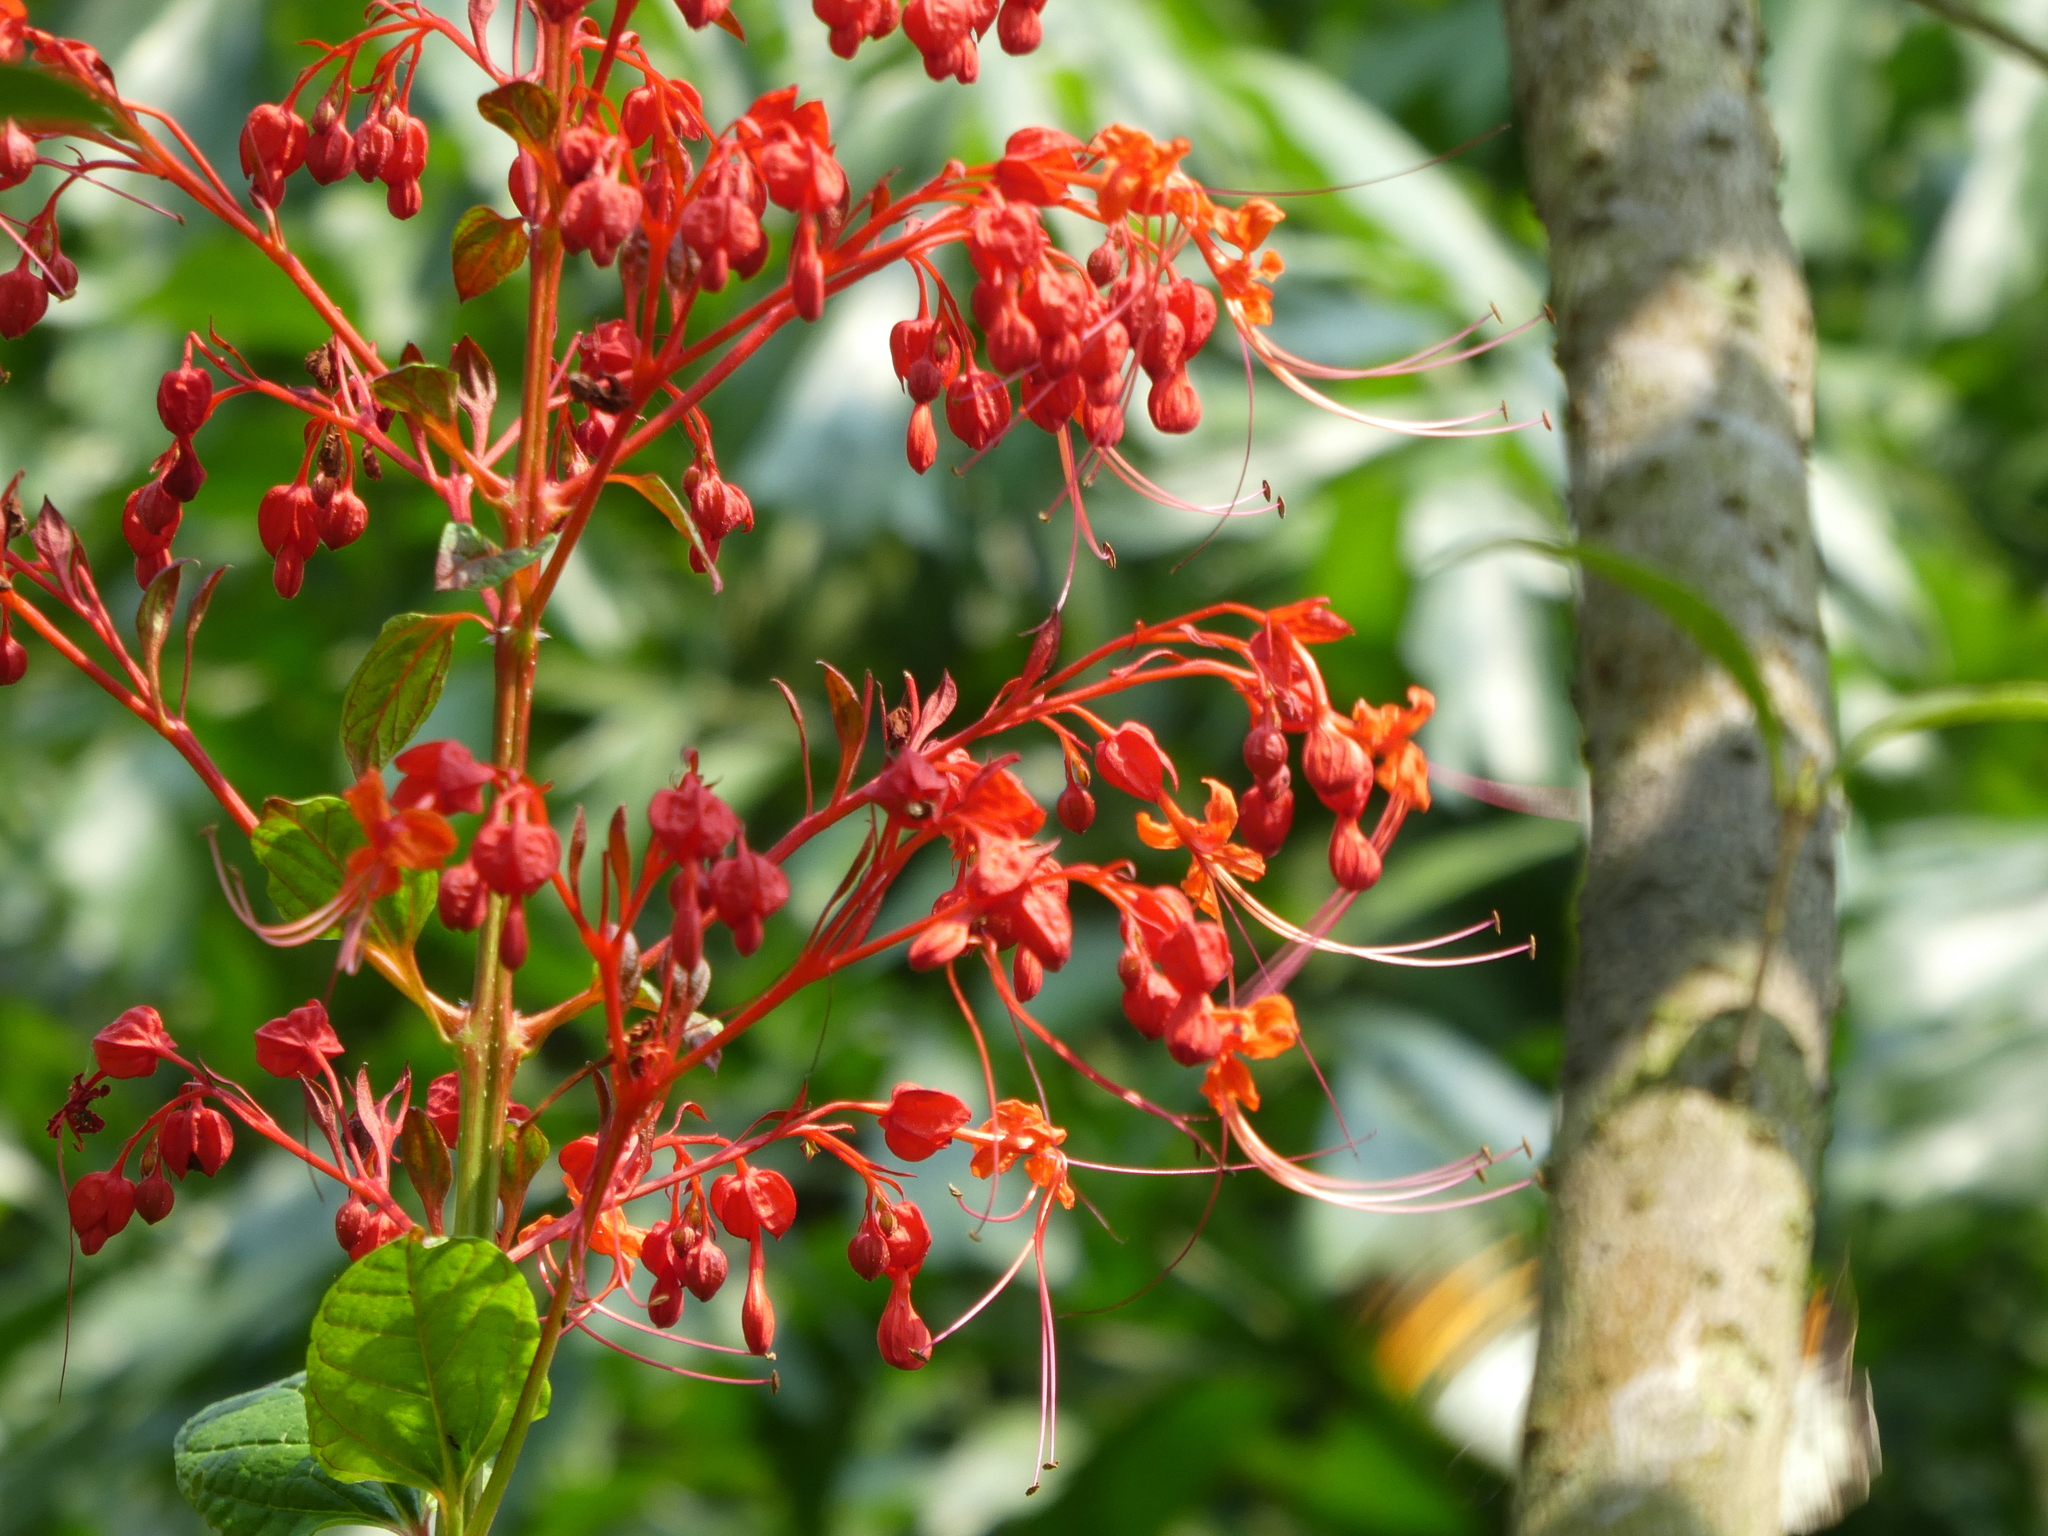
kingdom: Plantae
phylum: Tracheophyta
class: Magnoliopsida
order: Lamiales
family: Lamiaceae
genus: Clerodendrum
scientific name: Clerodendrum japonicum
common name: Japanese glorybower
